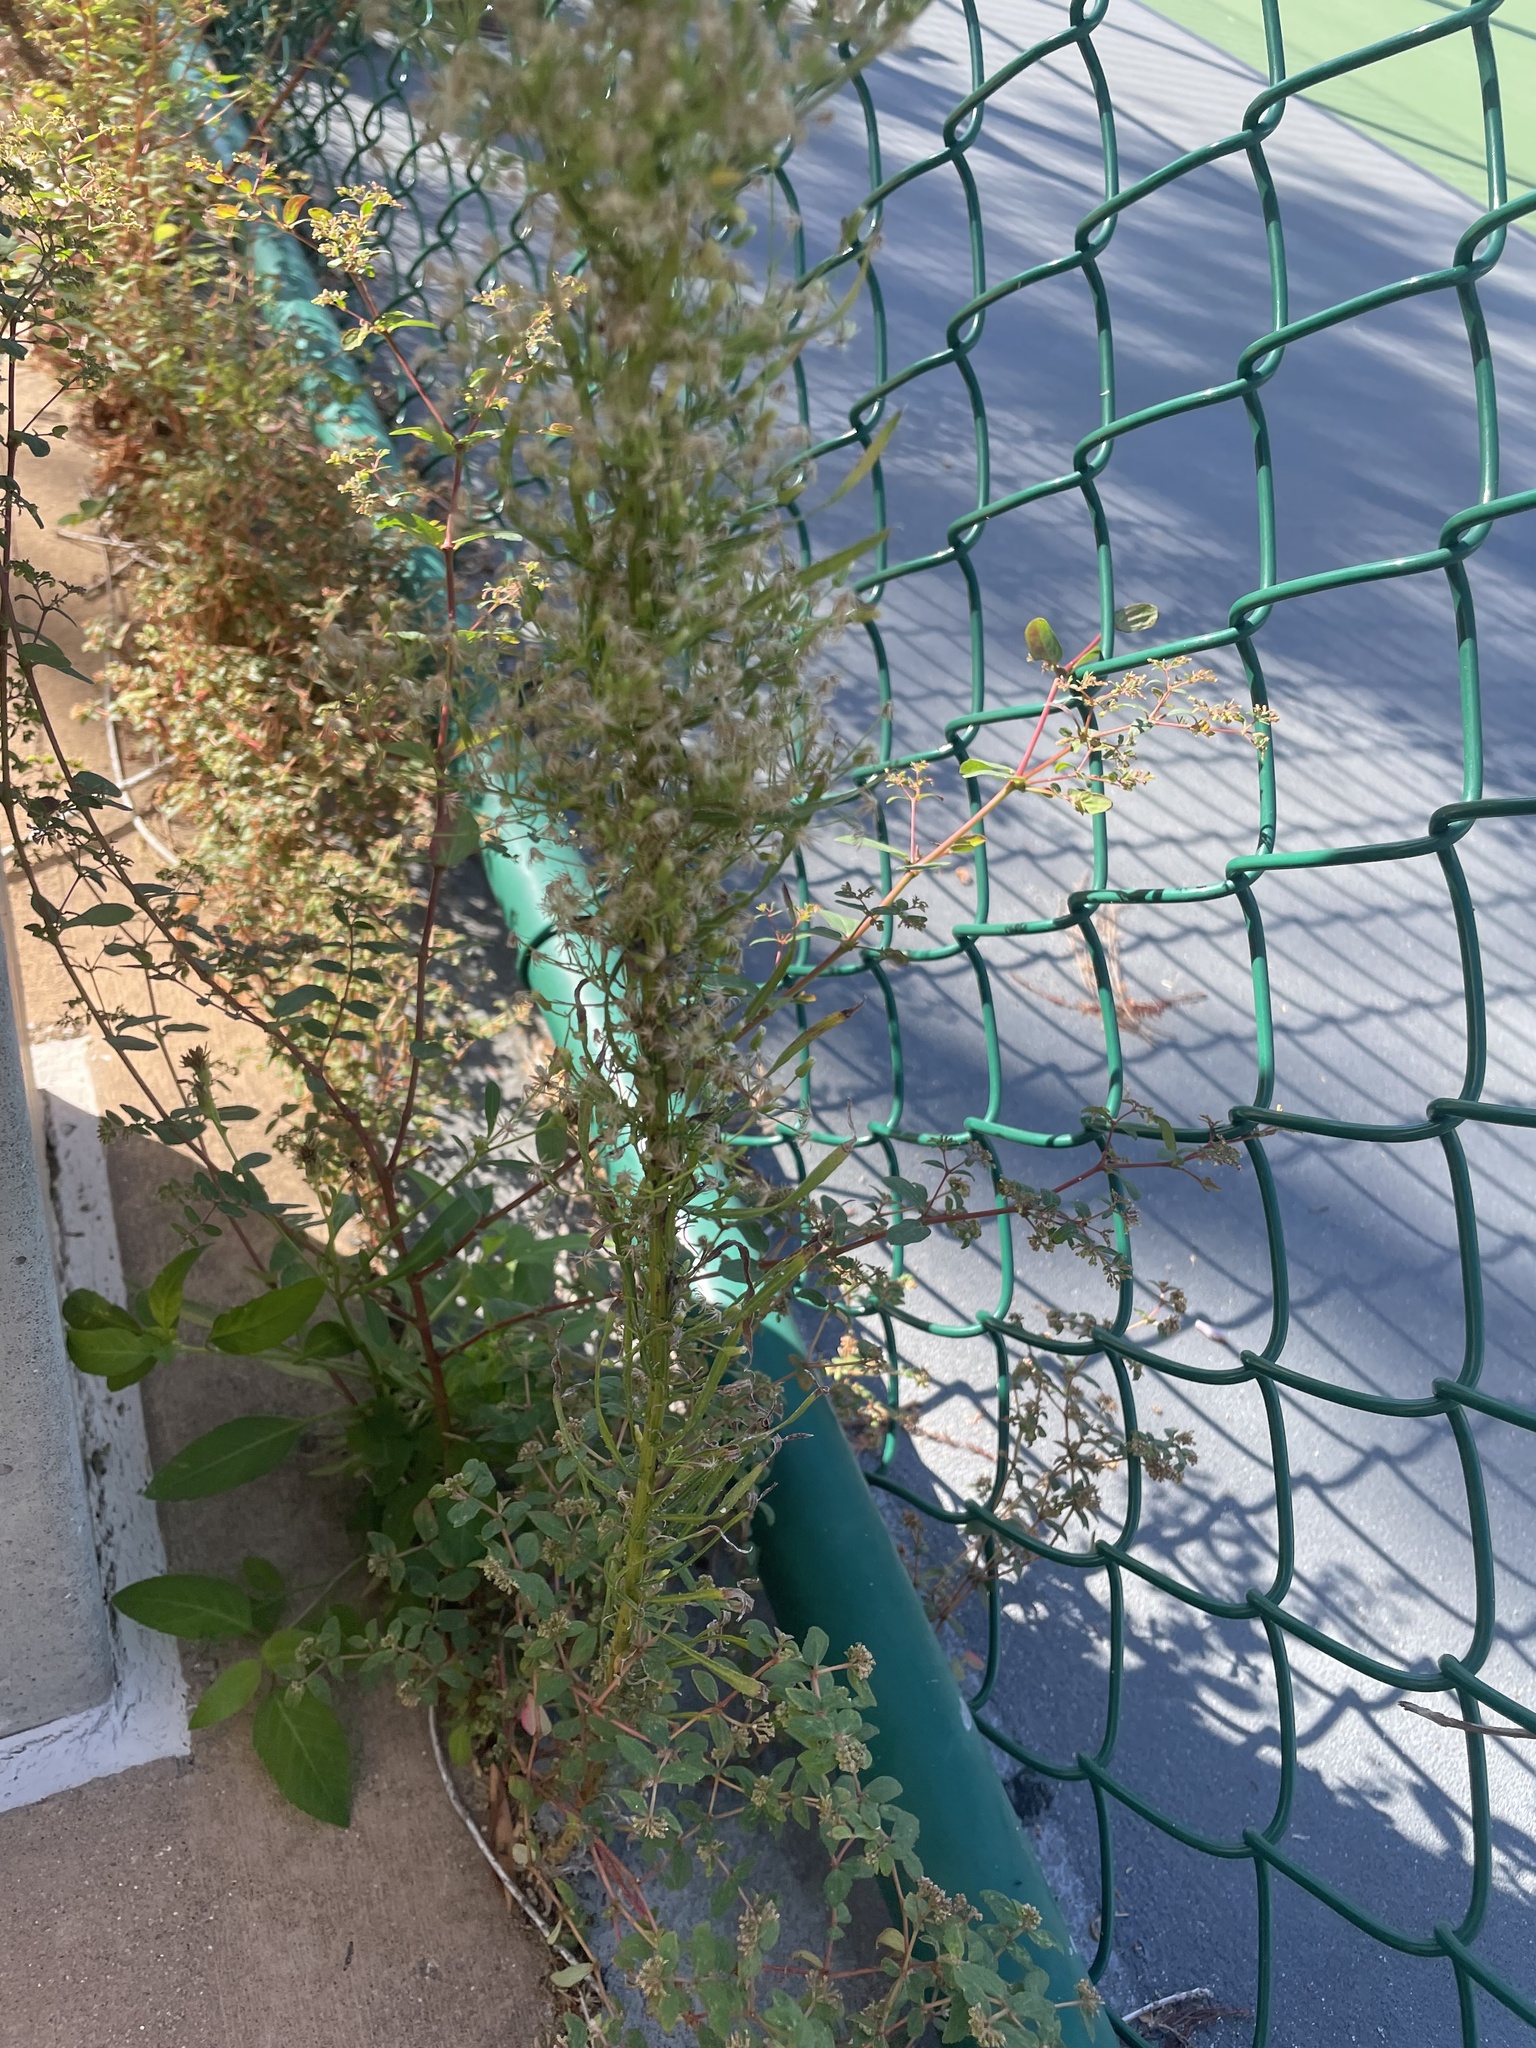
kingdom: Plantae
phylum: Tracheophyta
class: Magnoliopsida
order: Asterales
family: Asteraceae
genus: Erigeron
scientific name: Erigeron canadensis
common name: Canadian fleabane
